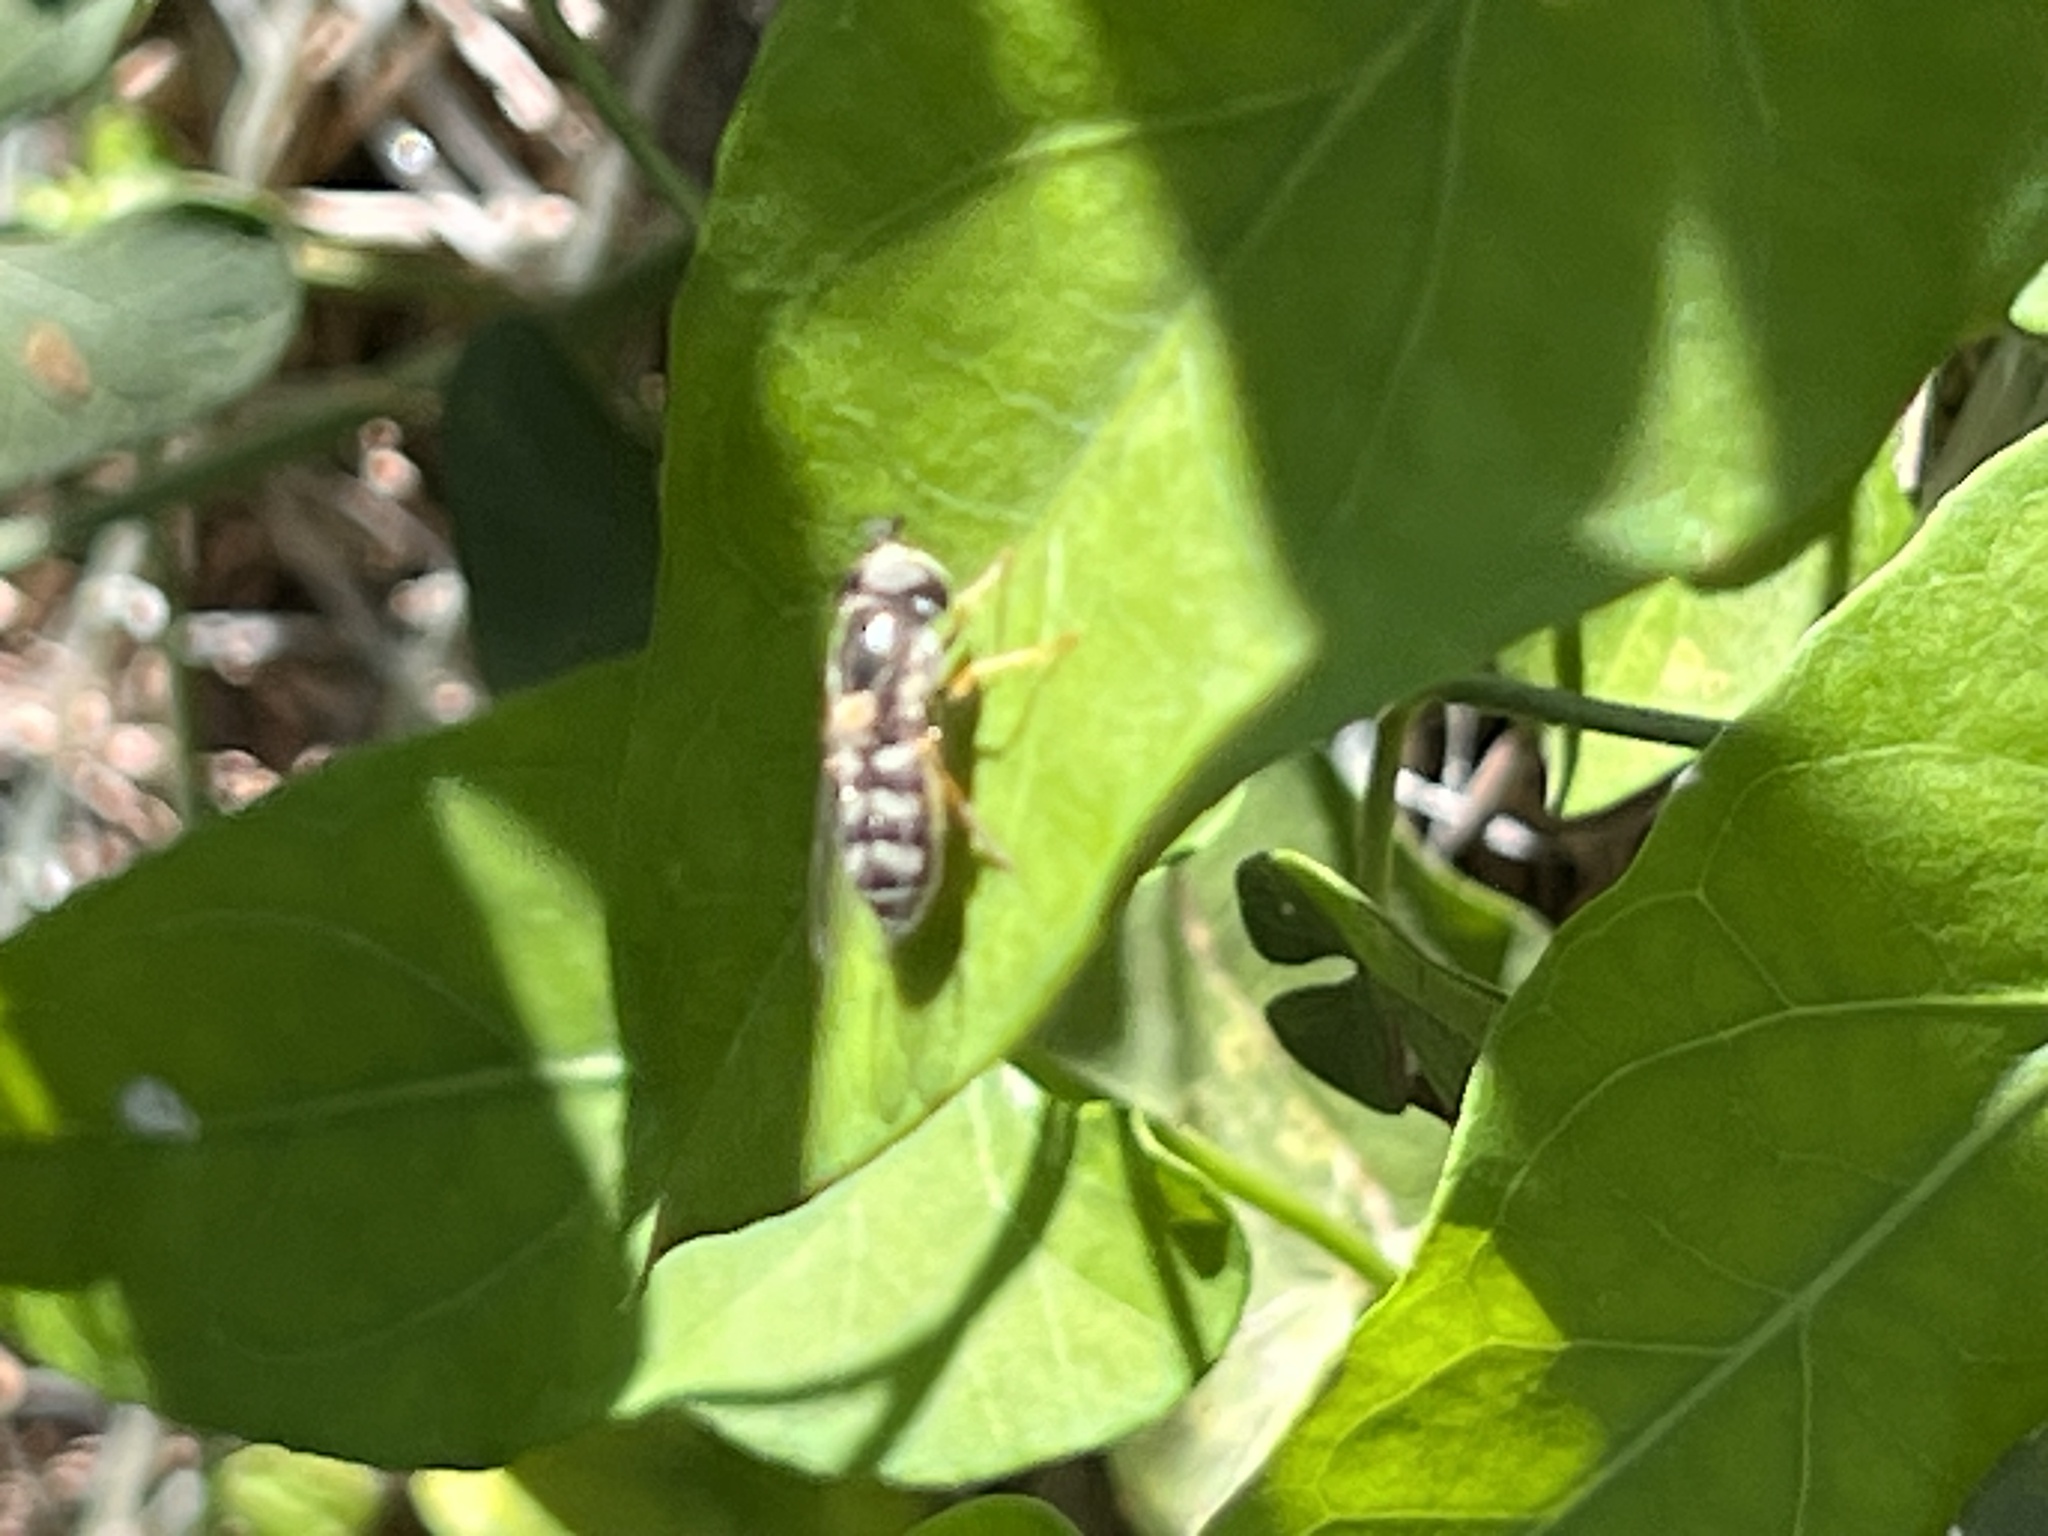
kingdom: Animalia
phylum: Arthropoda
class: Insecta
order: Diptera
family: Syrphidae
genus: Eupeodes
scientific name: Eupeodes volucris
